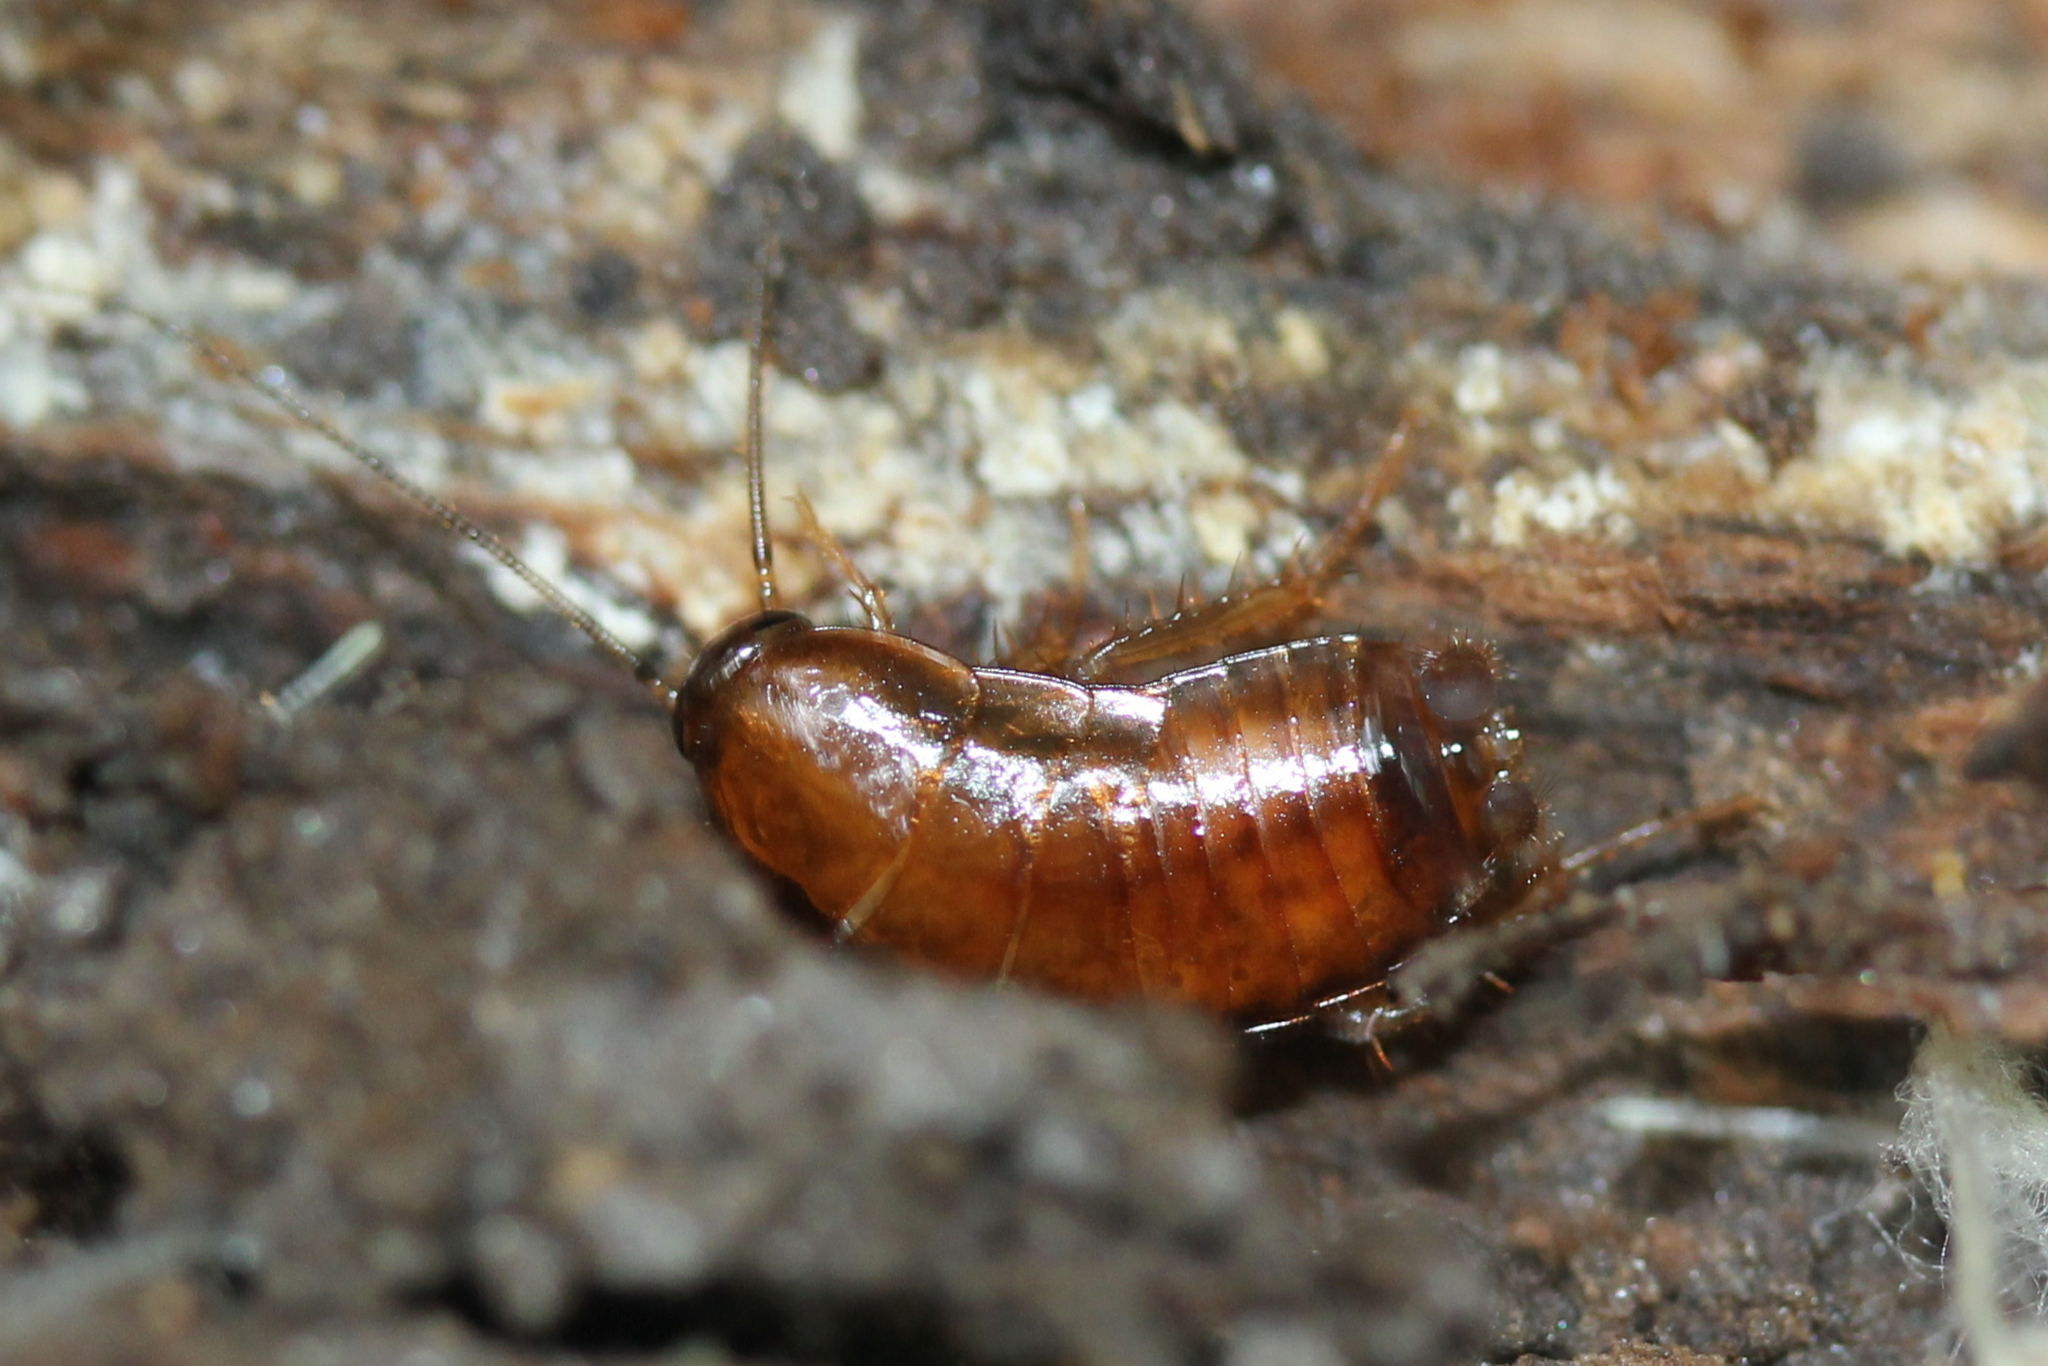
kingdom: Animalia
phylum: Arthropoda
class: Insecta
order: Blattodea
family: Ectobiidae
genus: Parcoblatta
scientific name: Parcoblatta virginica
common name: Virginia wood cockroach
